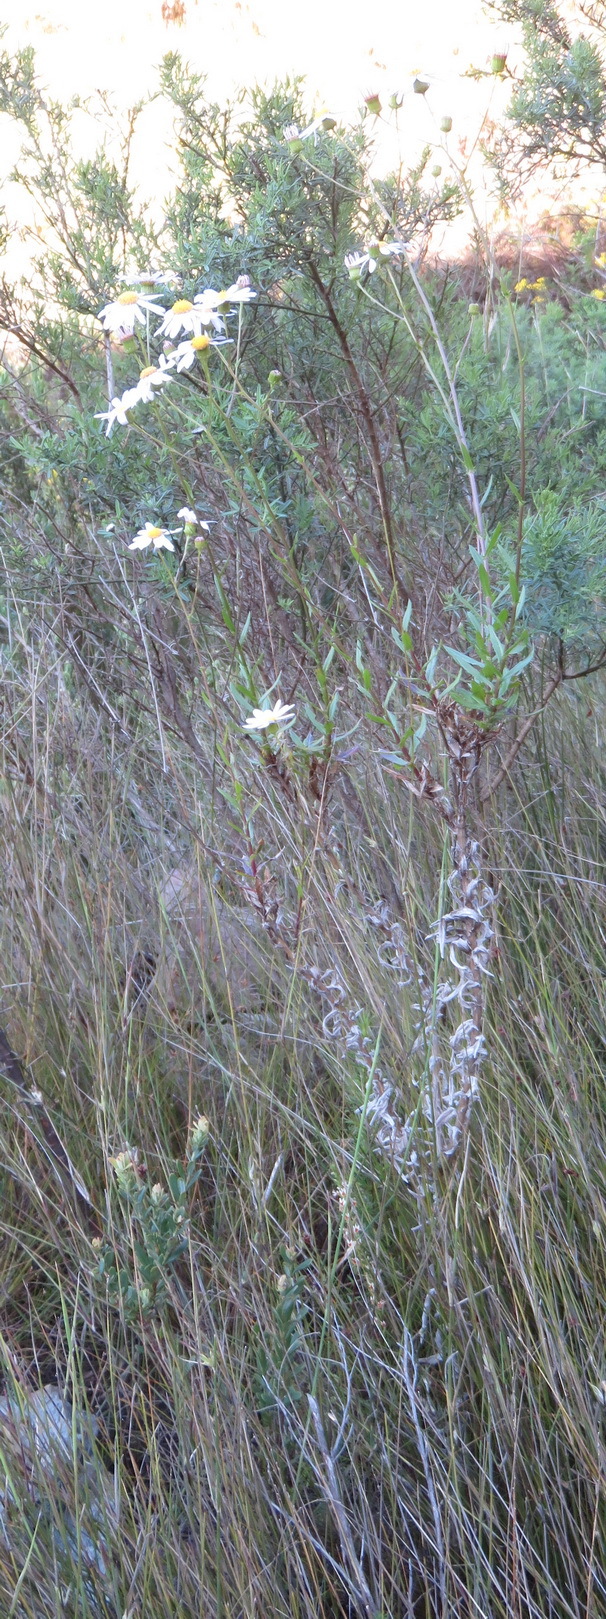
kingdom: Plantae
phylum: Tracheophyta
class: Magnoliopsida
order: Asterales
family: Asteraceae
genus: Senecio
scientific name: Senecio glastifolius
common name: Woad-leaved ragwort
